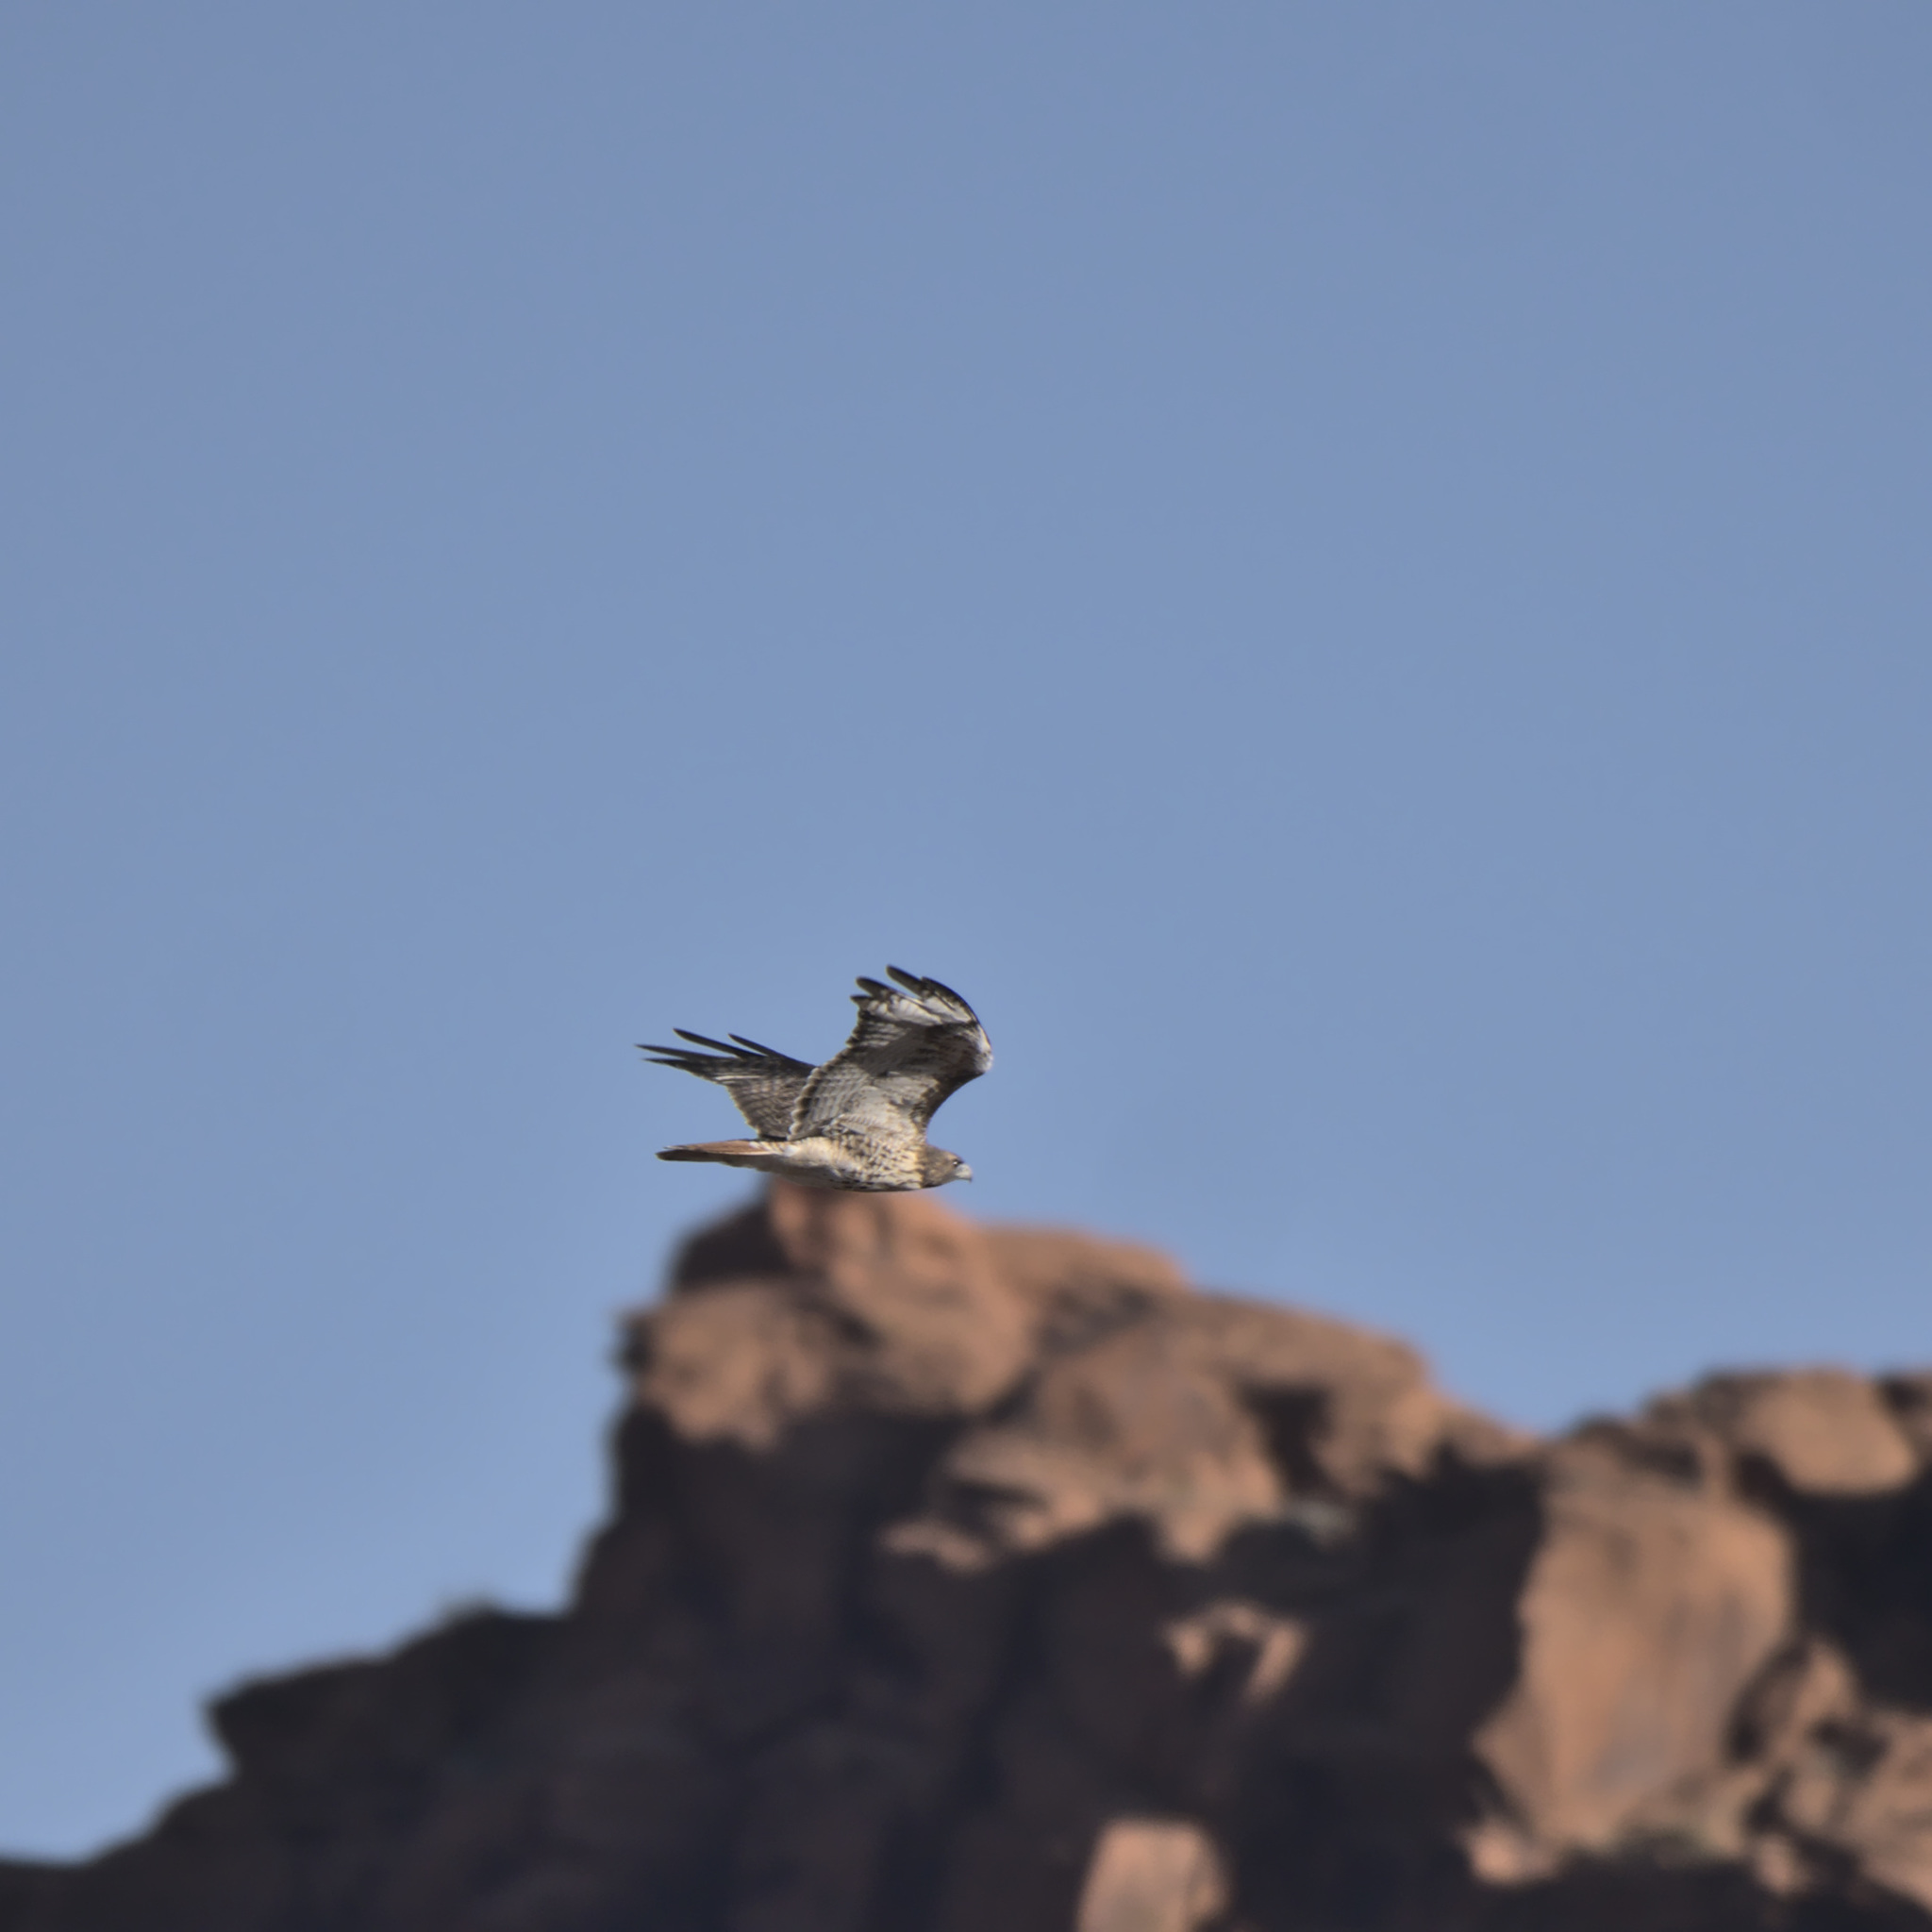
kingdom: Animalia
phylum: Chordata
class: Aves
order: Accipitriformes
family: Accipitridae
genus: Buteo
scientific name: Buteo jamaicensis
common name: Red-tailed hawk
